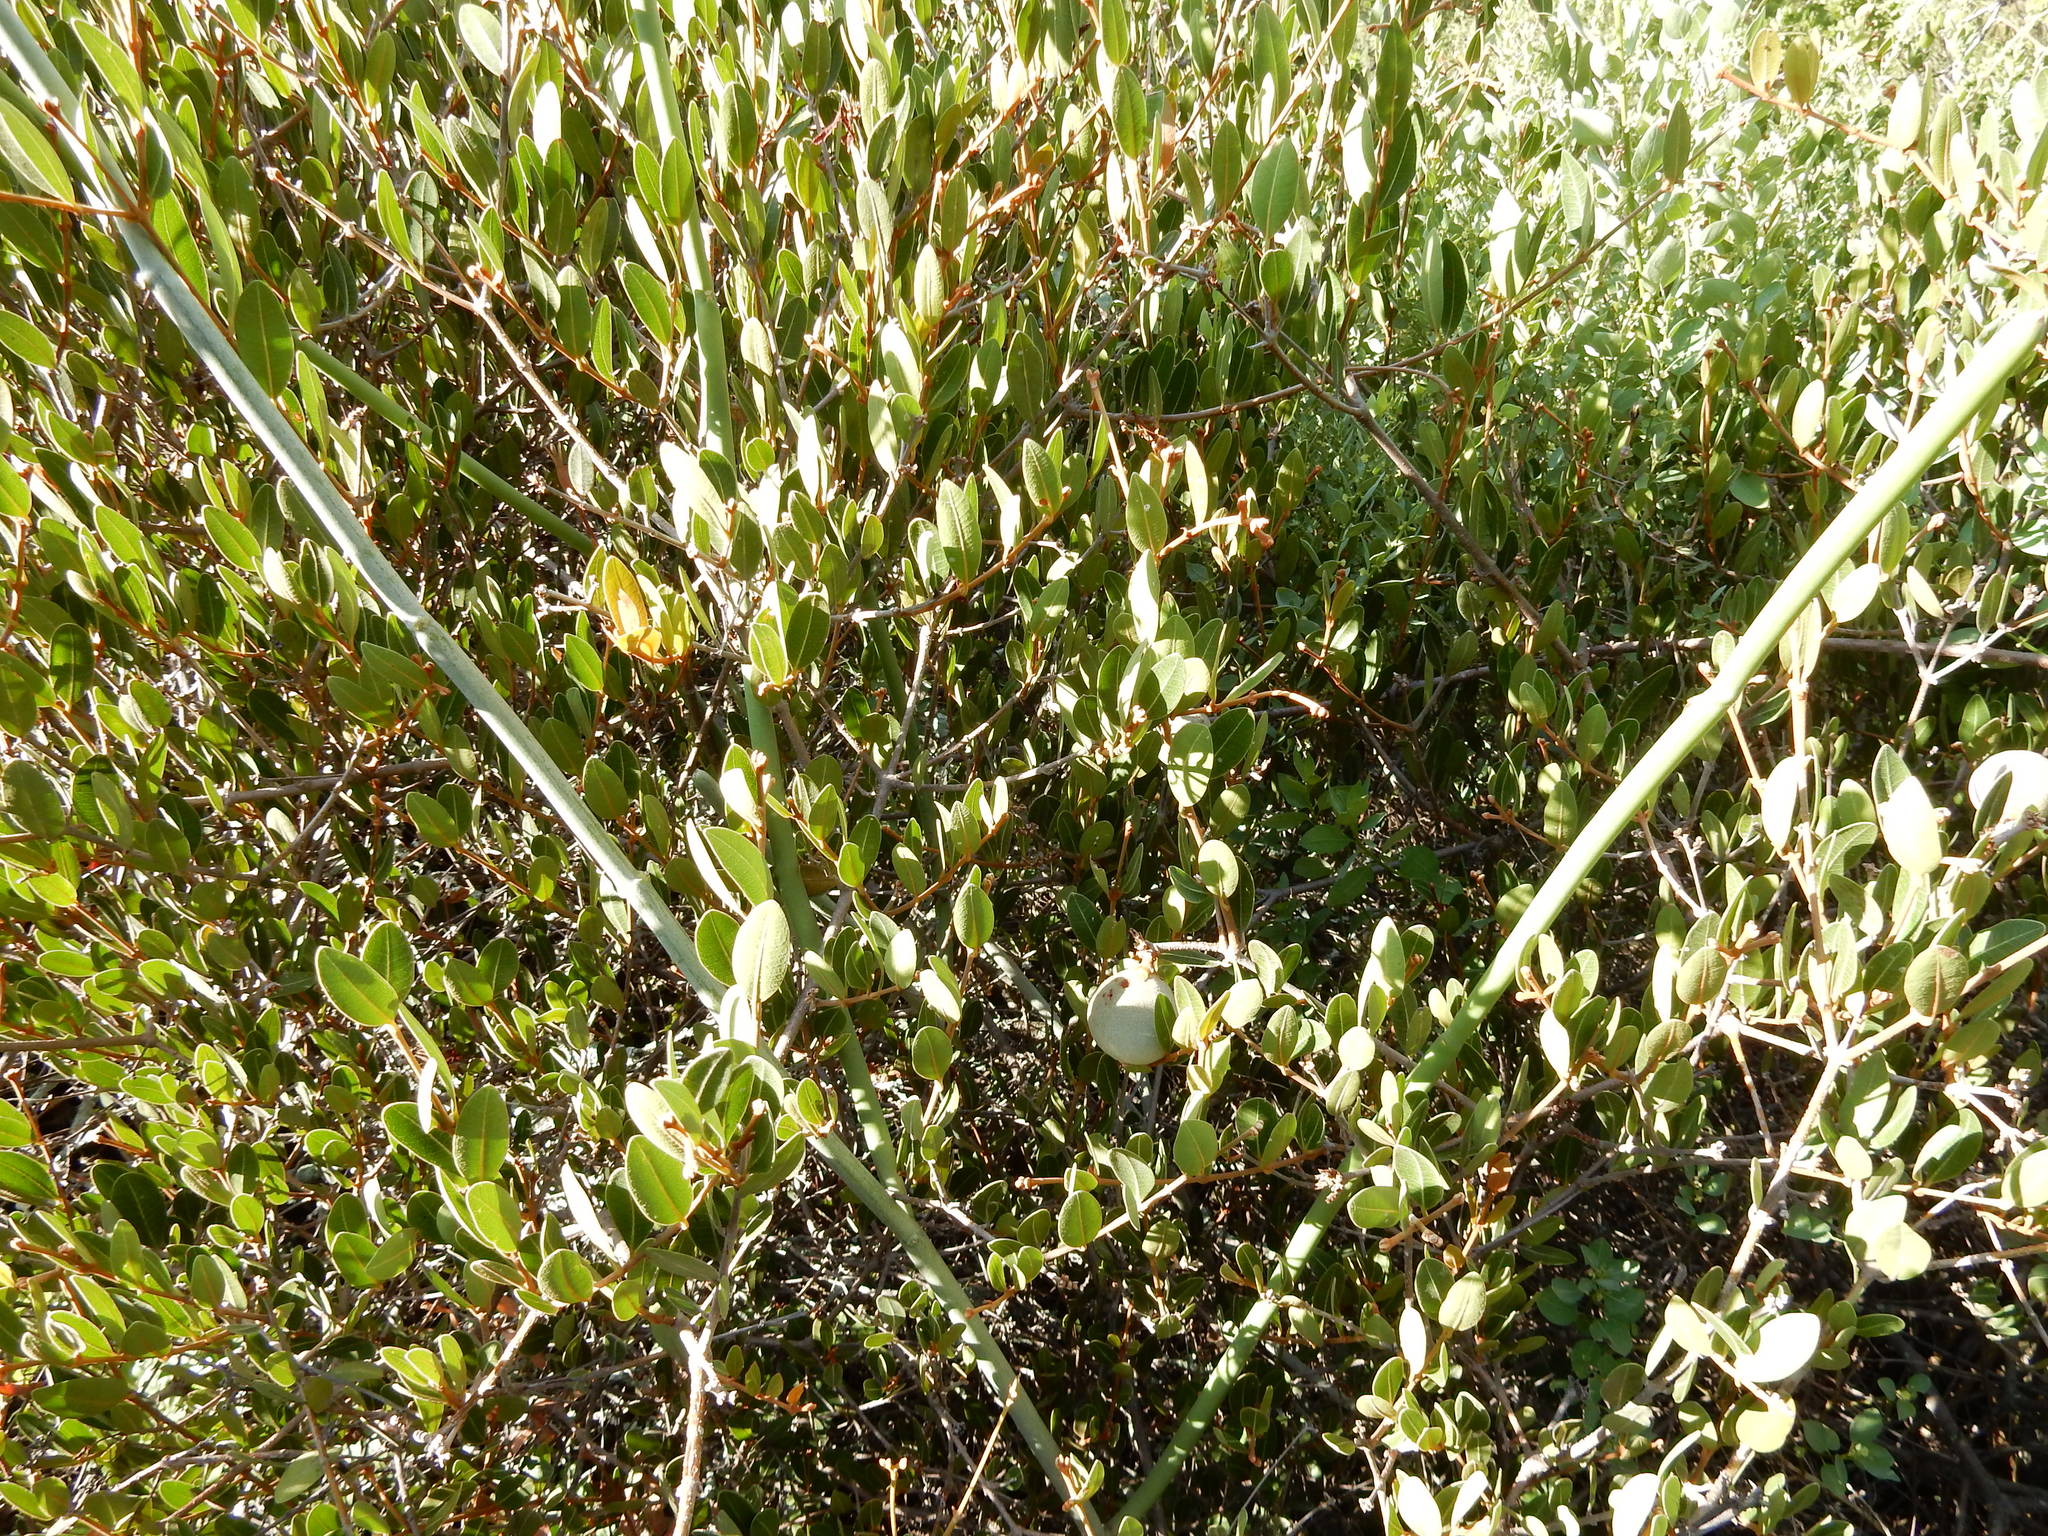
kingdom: Plantae
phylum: Tracheophyta
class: Magnoliopsida
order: Gentianales
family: Apocynaceae
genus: Ancylobothrys
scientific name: Ancylobothrys capensis
